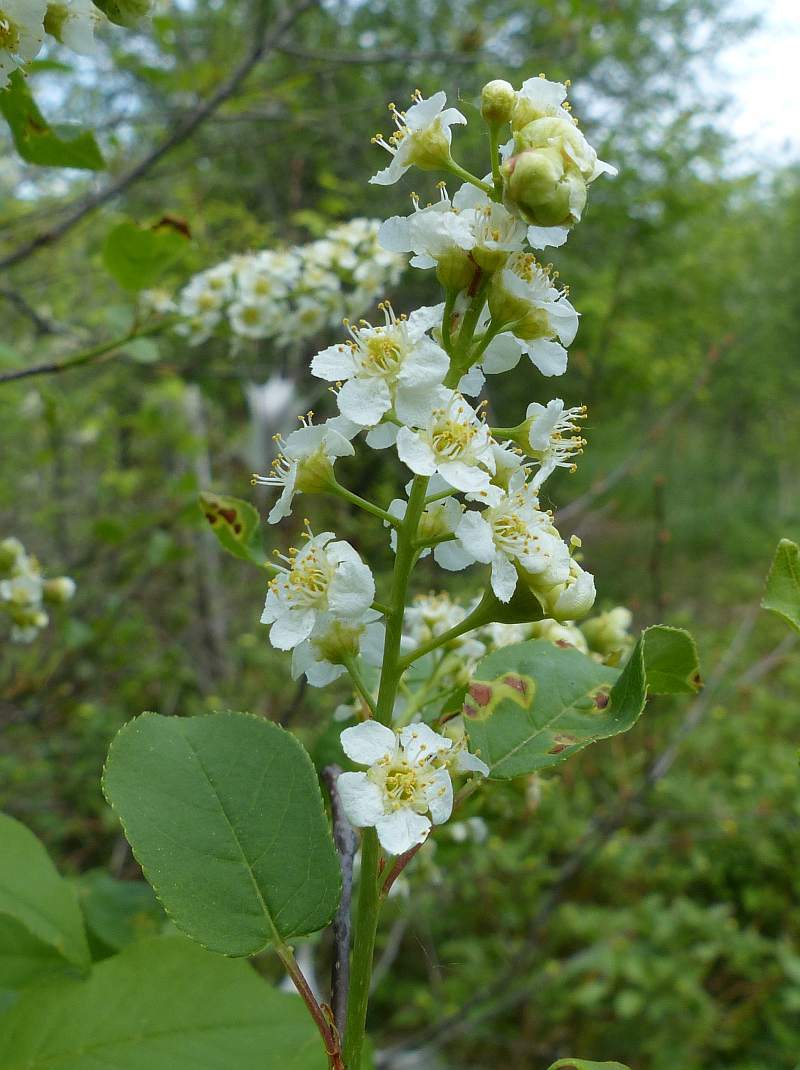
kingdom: Plantae
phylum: Tracheophyta
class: Magnoliopsida
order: Rosales
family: Rosaceae
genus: Prunus
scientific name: Prunus virginiana
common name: Chokecherry
